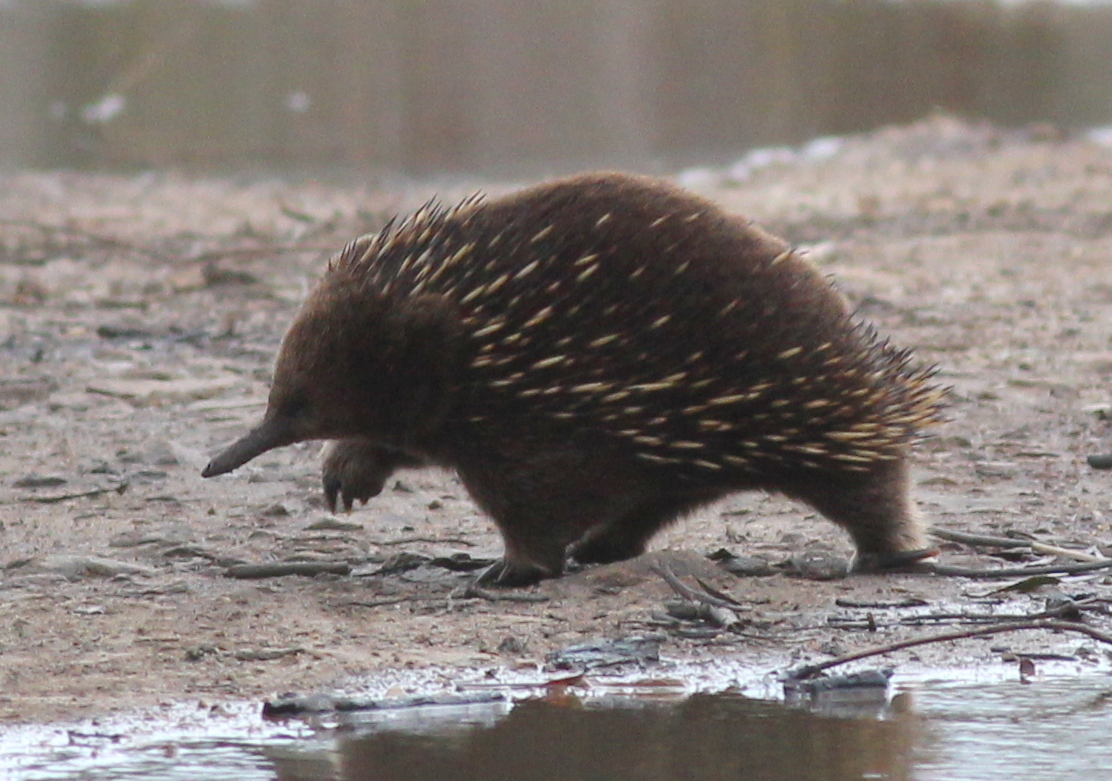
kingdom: Animalia
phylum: Chordata
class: Mammalia
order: Monotremata
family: Tachyglossidae
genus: Tachyglossus
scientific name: Tachyglossus aculeatus
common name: Short-beaked echidna
